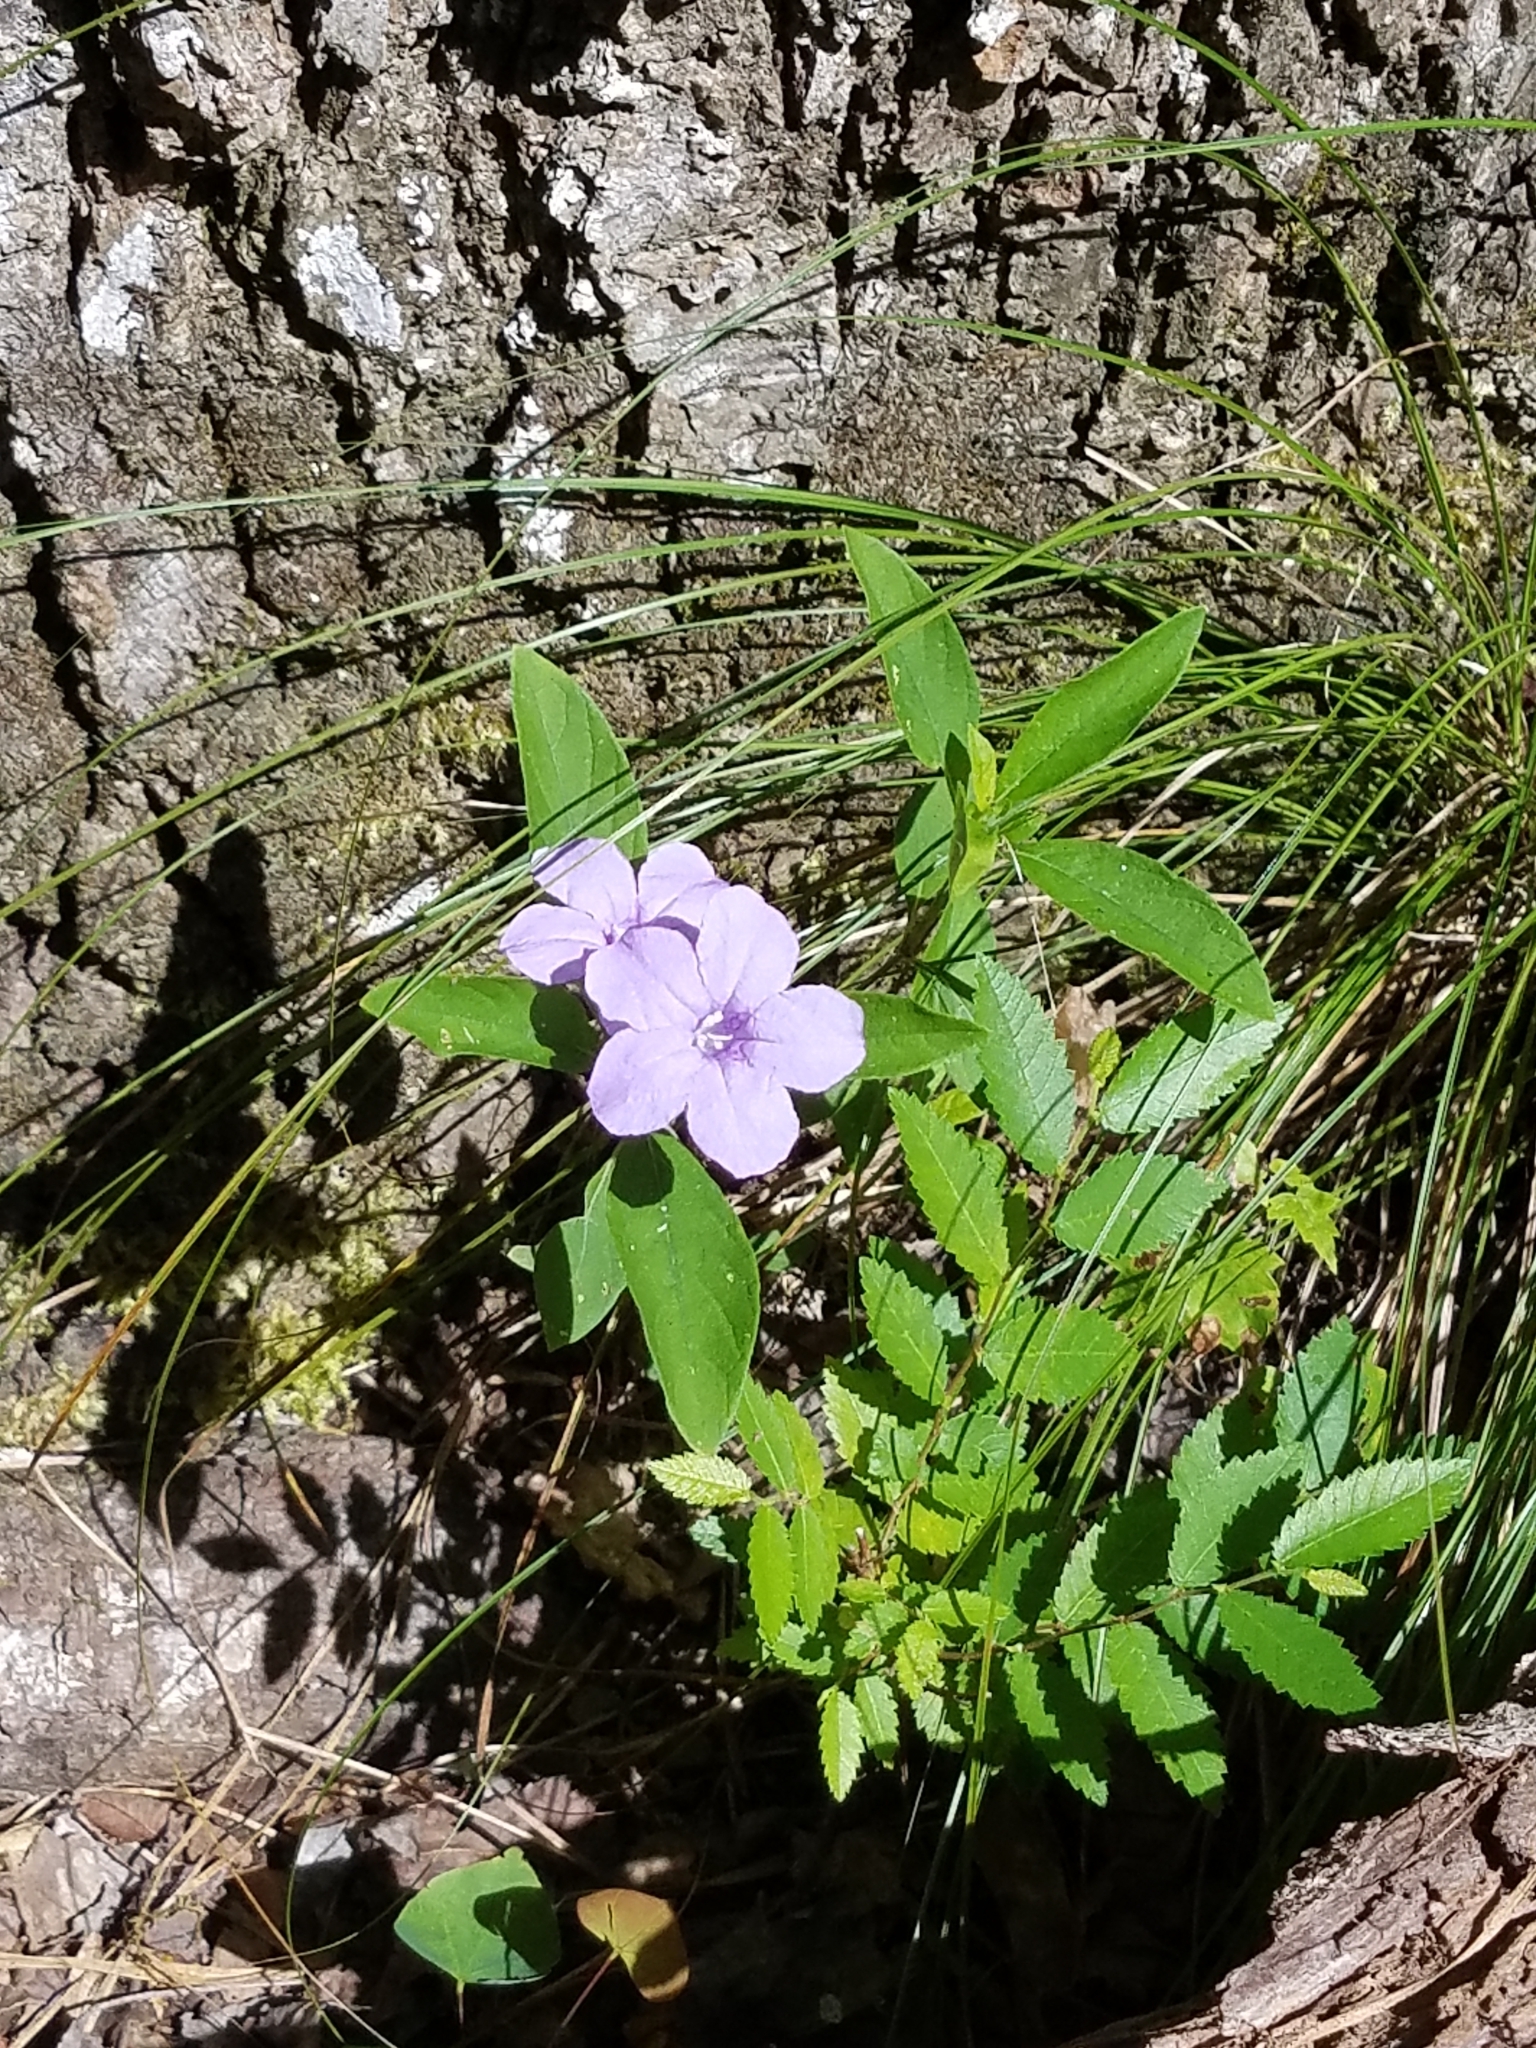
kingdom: Plantae
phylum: Tracheophyta
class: Magnoliopsida
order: Lamiales
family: Acanthaceae
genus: Ruellia
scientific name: Ruellia caroliniensis
